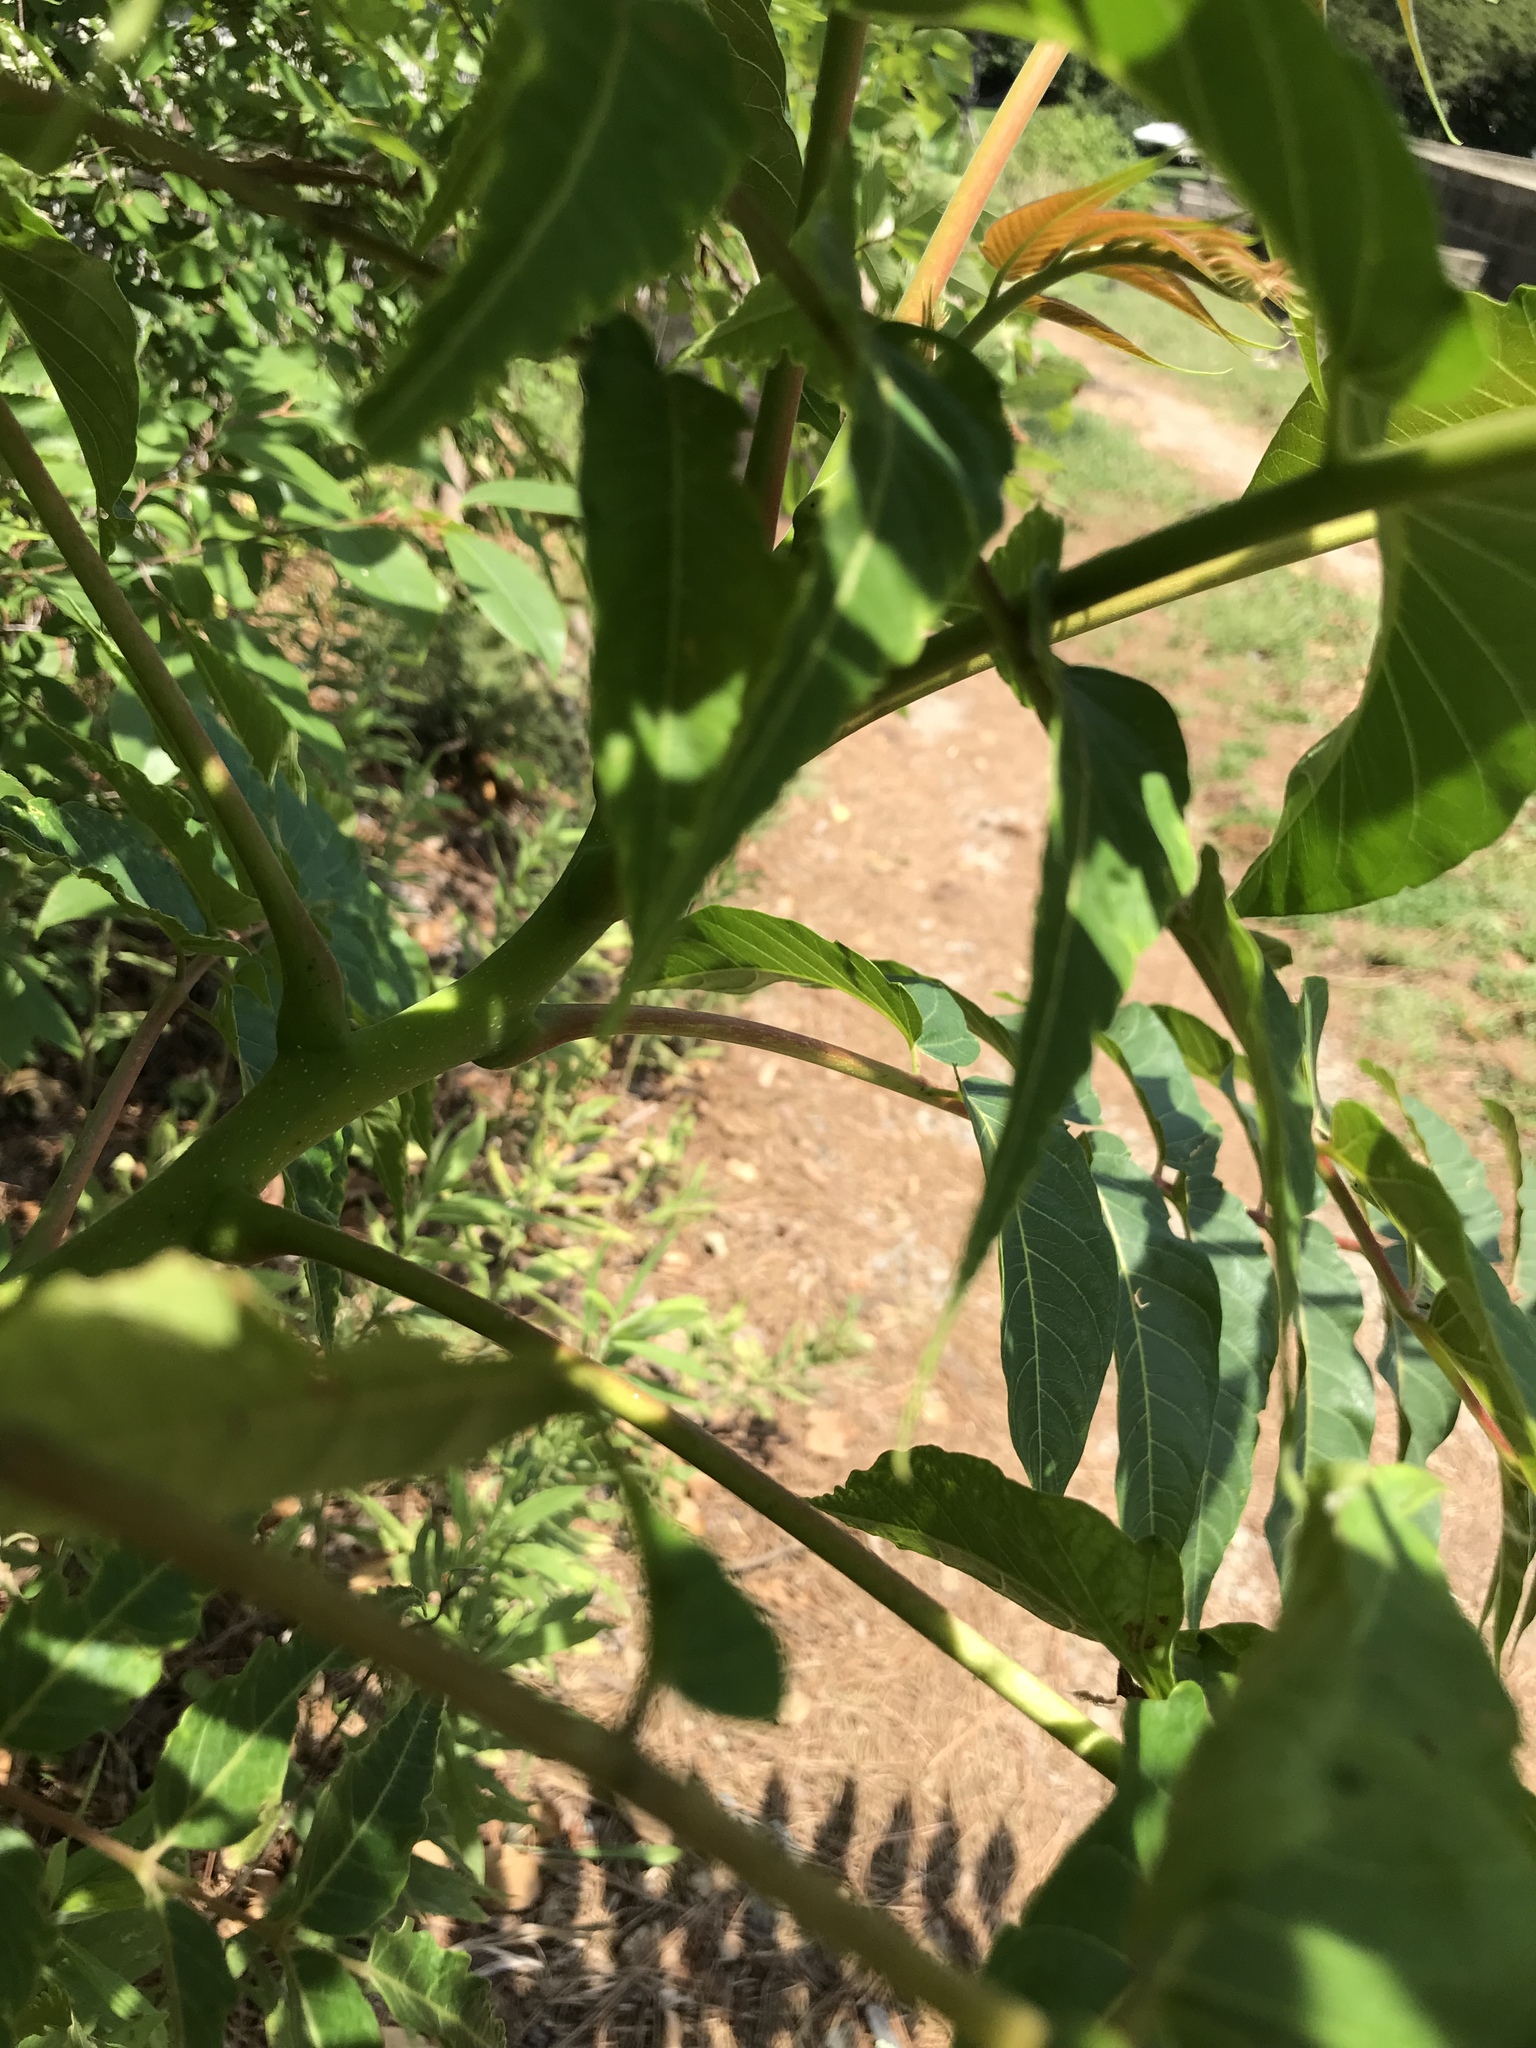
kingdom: Plantae
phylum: Tracheophyta
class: Magnoliopsida
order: Sapindales
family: Simaroubaceae
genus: Ailanthus
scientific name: Ailanthus altissima
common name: Tree-of-heaven
